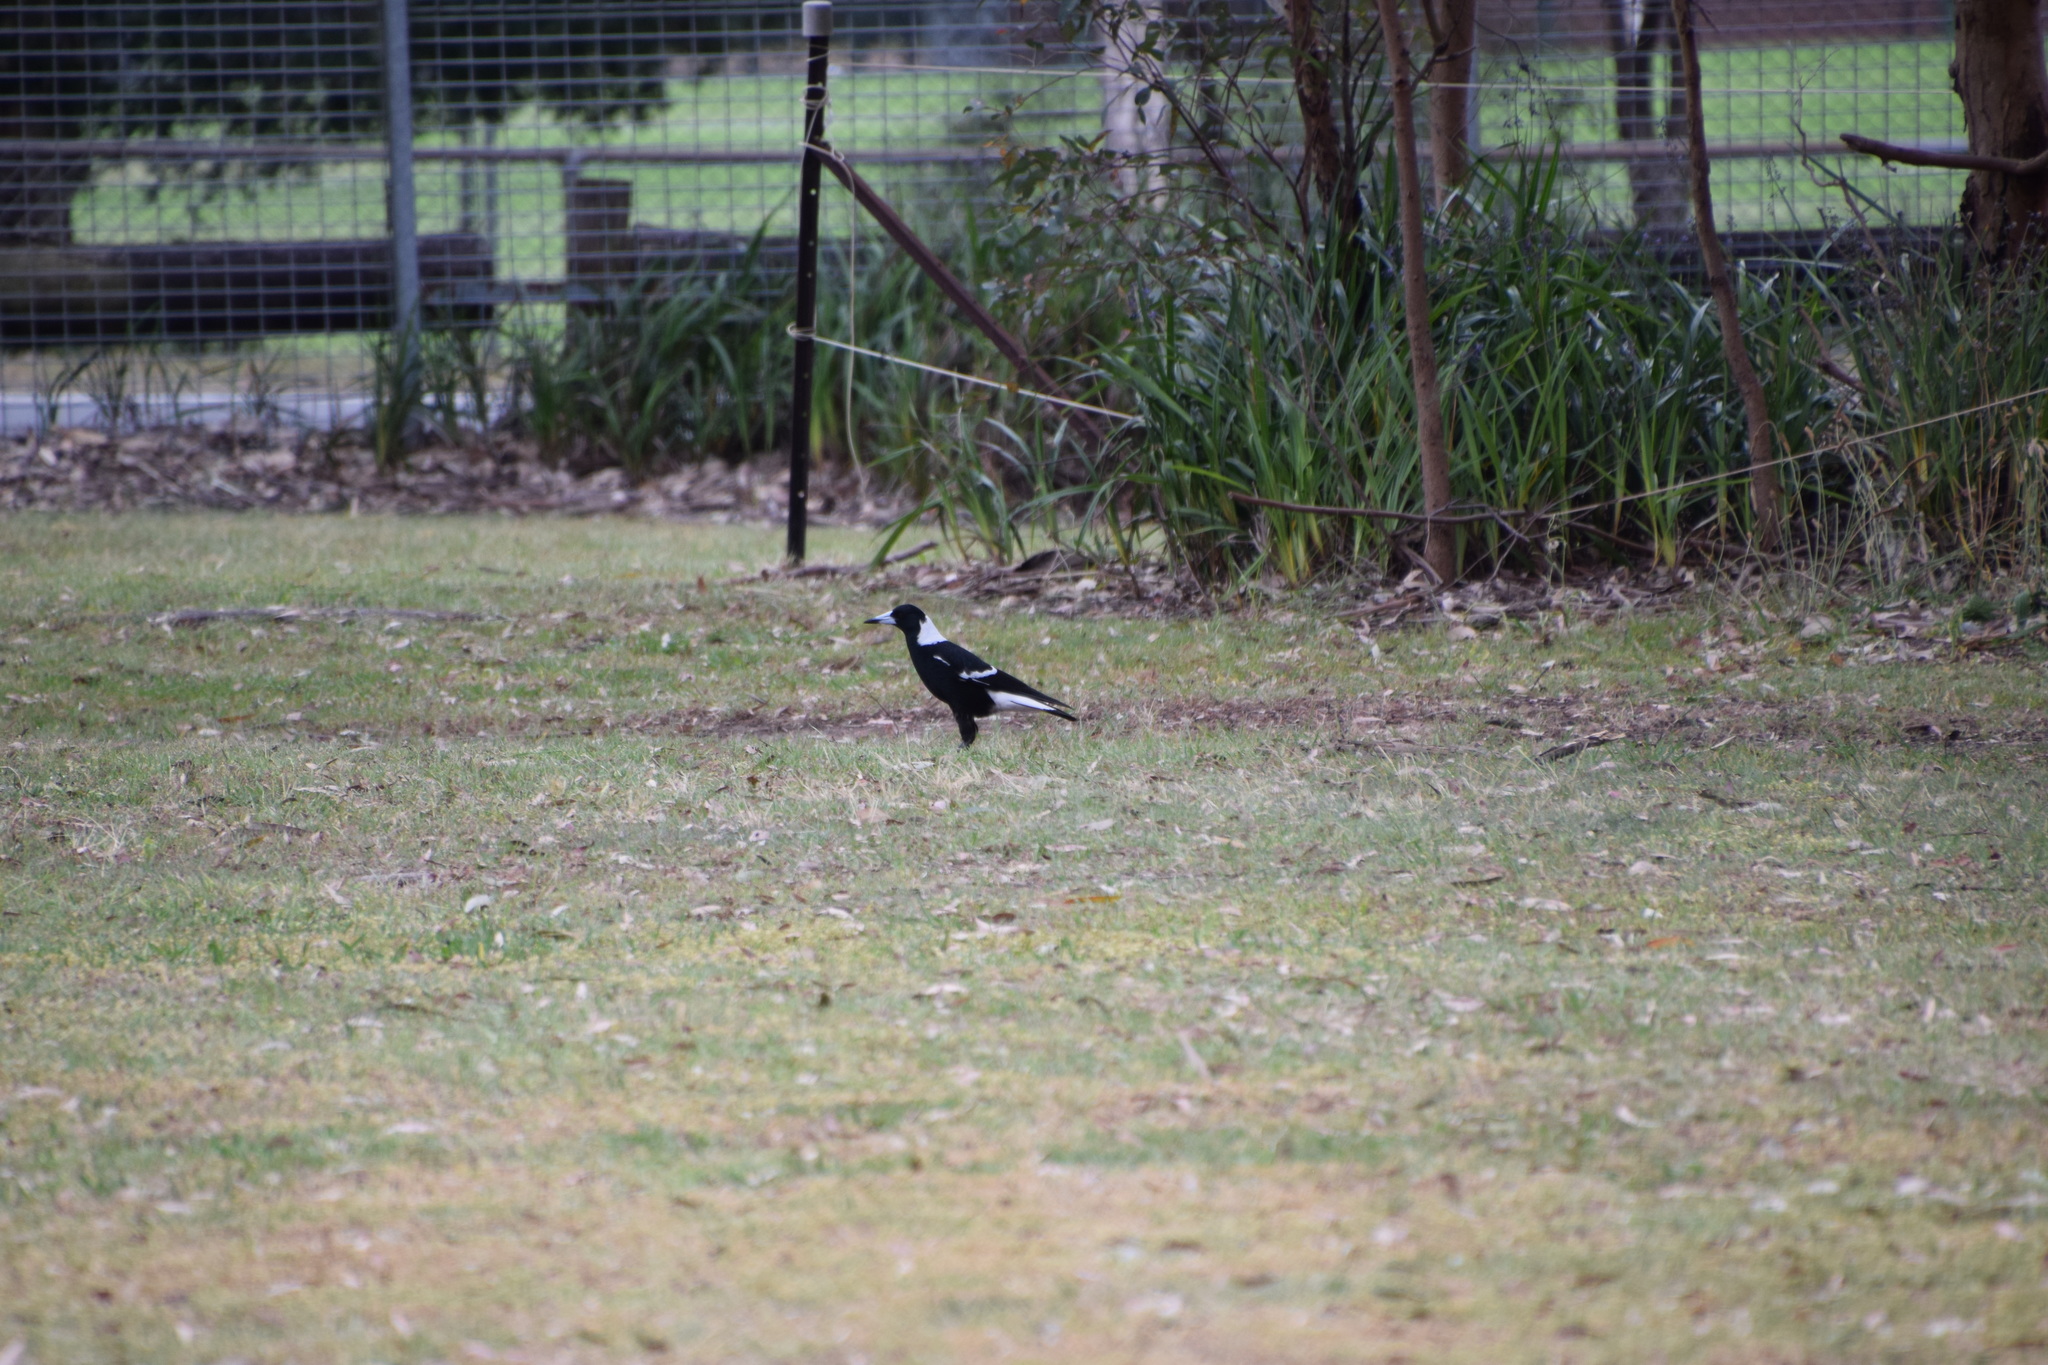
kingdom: Animalia
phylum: Chordata
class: Aves
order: Passeriformes
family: Cracticidae
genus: Gymnorhina
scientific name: Gymnorhina tibicen
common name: Australian magpie
